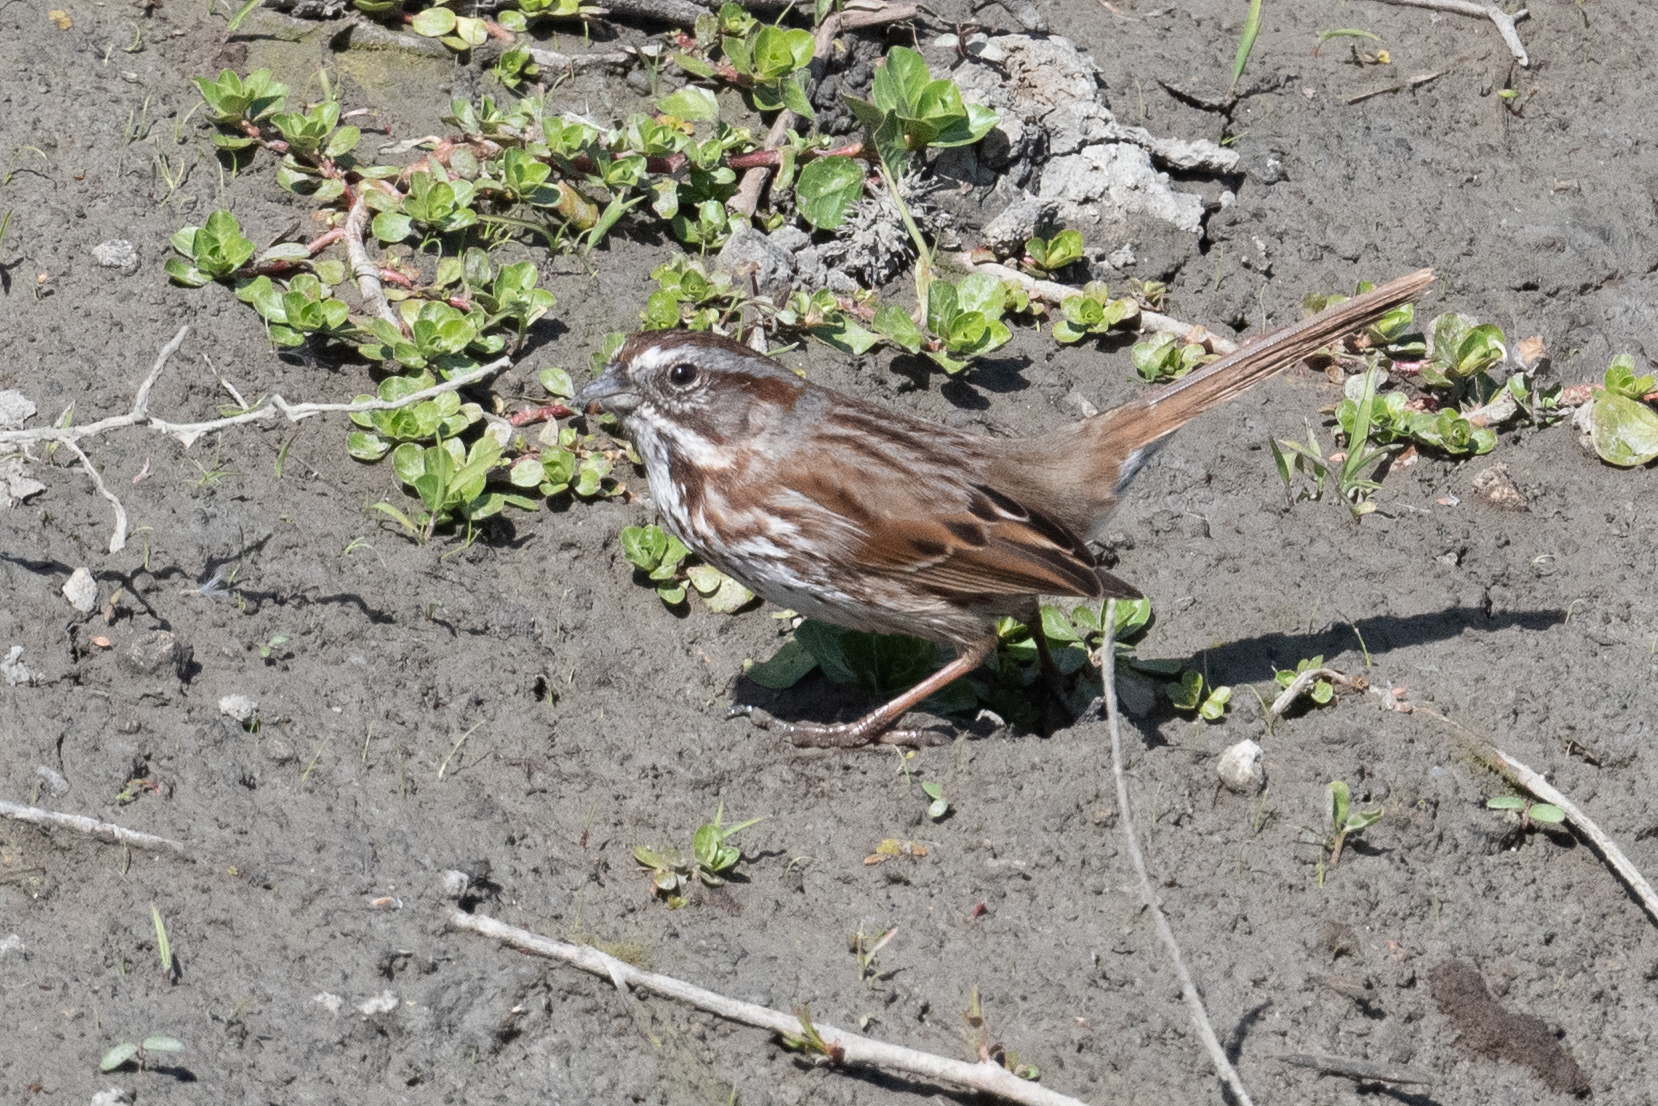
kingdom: Animalia
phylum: Chordata
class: Aves
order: Passeriformes
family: Passerellidae
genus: Melospiza
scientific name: Melospiza melodia
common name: Song sparrow
